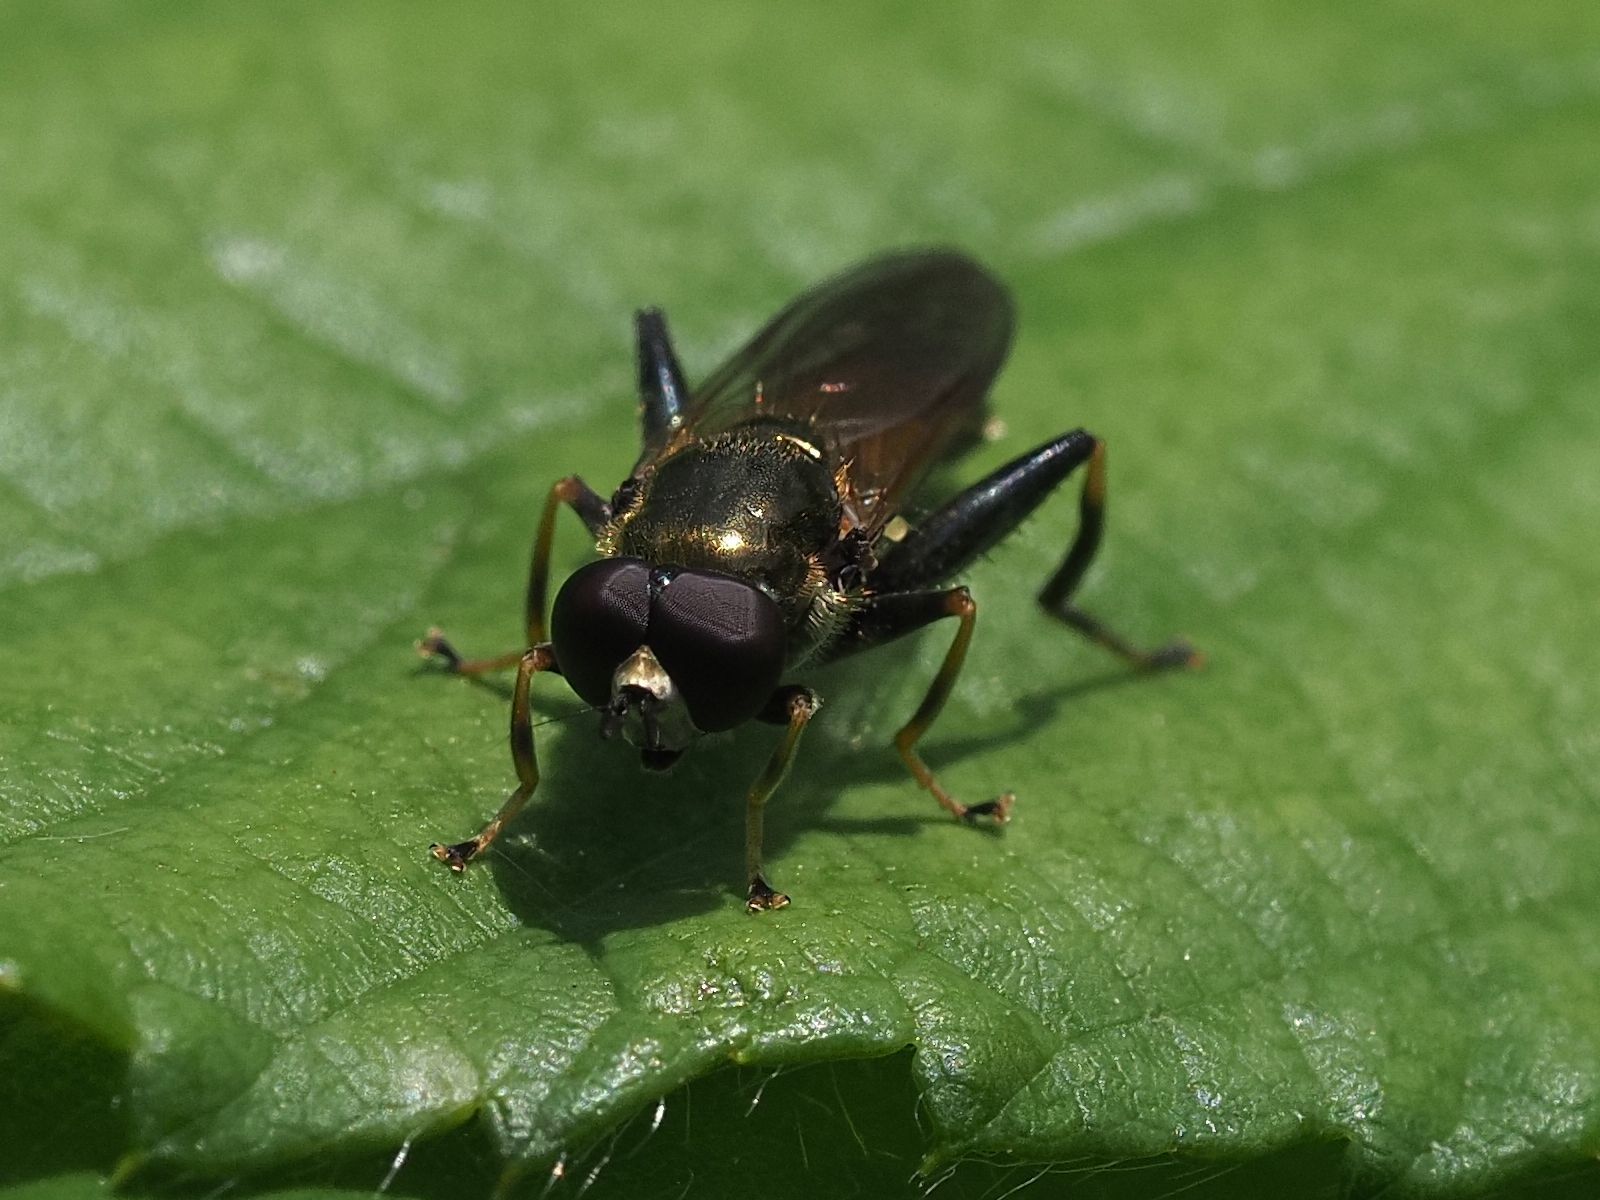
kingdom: Animalia
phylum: Arthropoda
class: Insecta
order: Diptera
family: Syrphidae
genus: Xylota
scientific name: Xylota segnis
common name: Brown-toed forest fly
